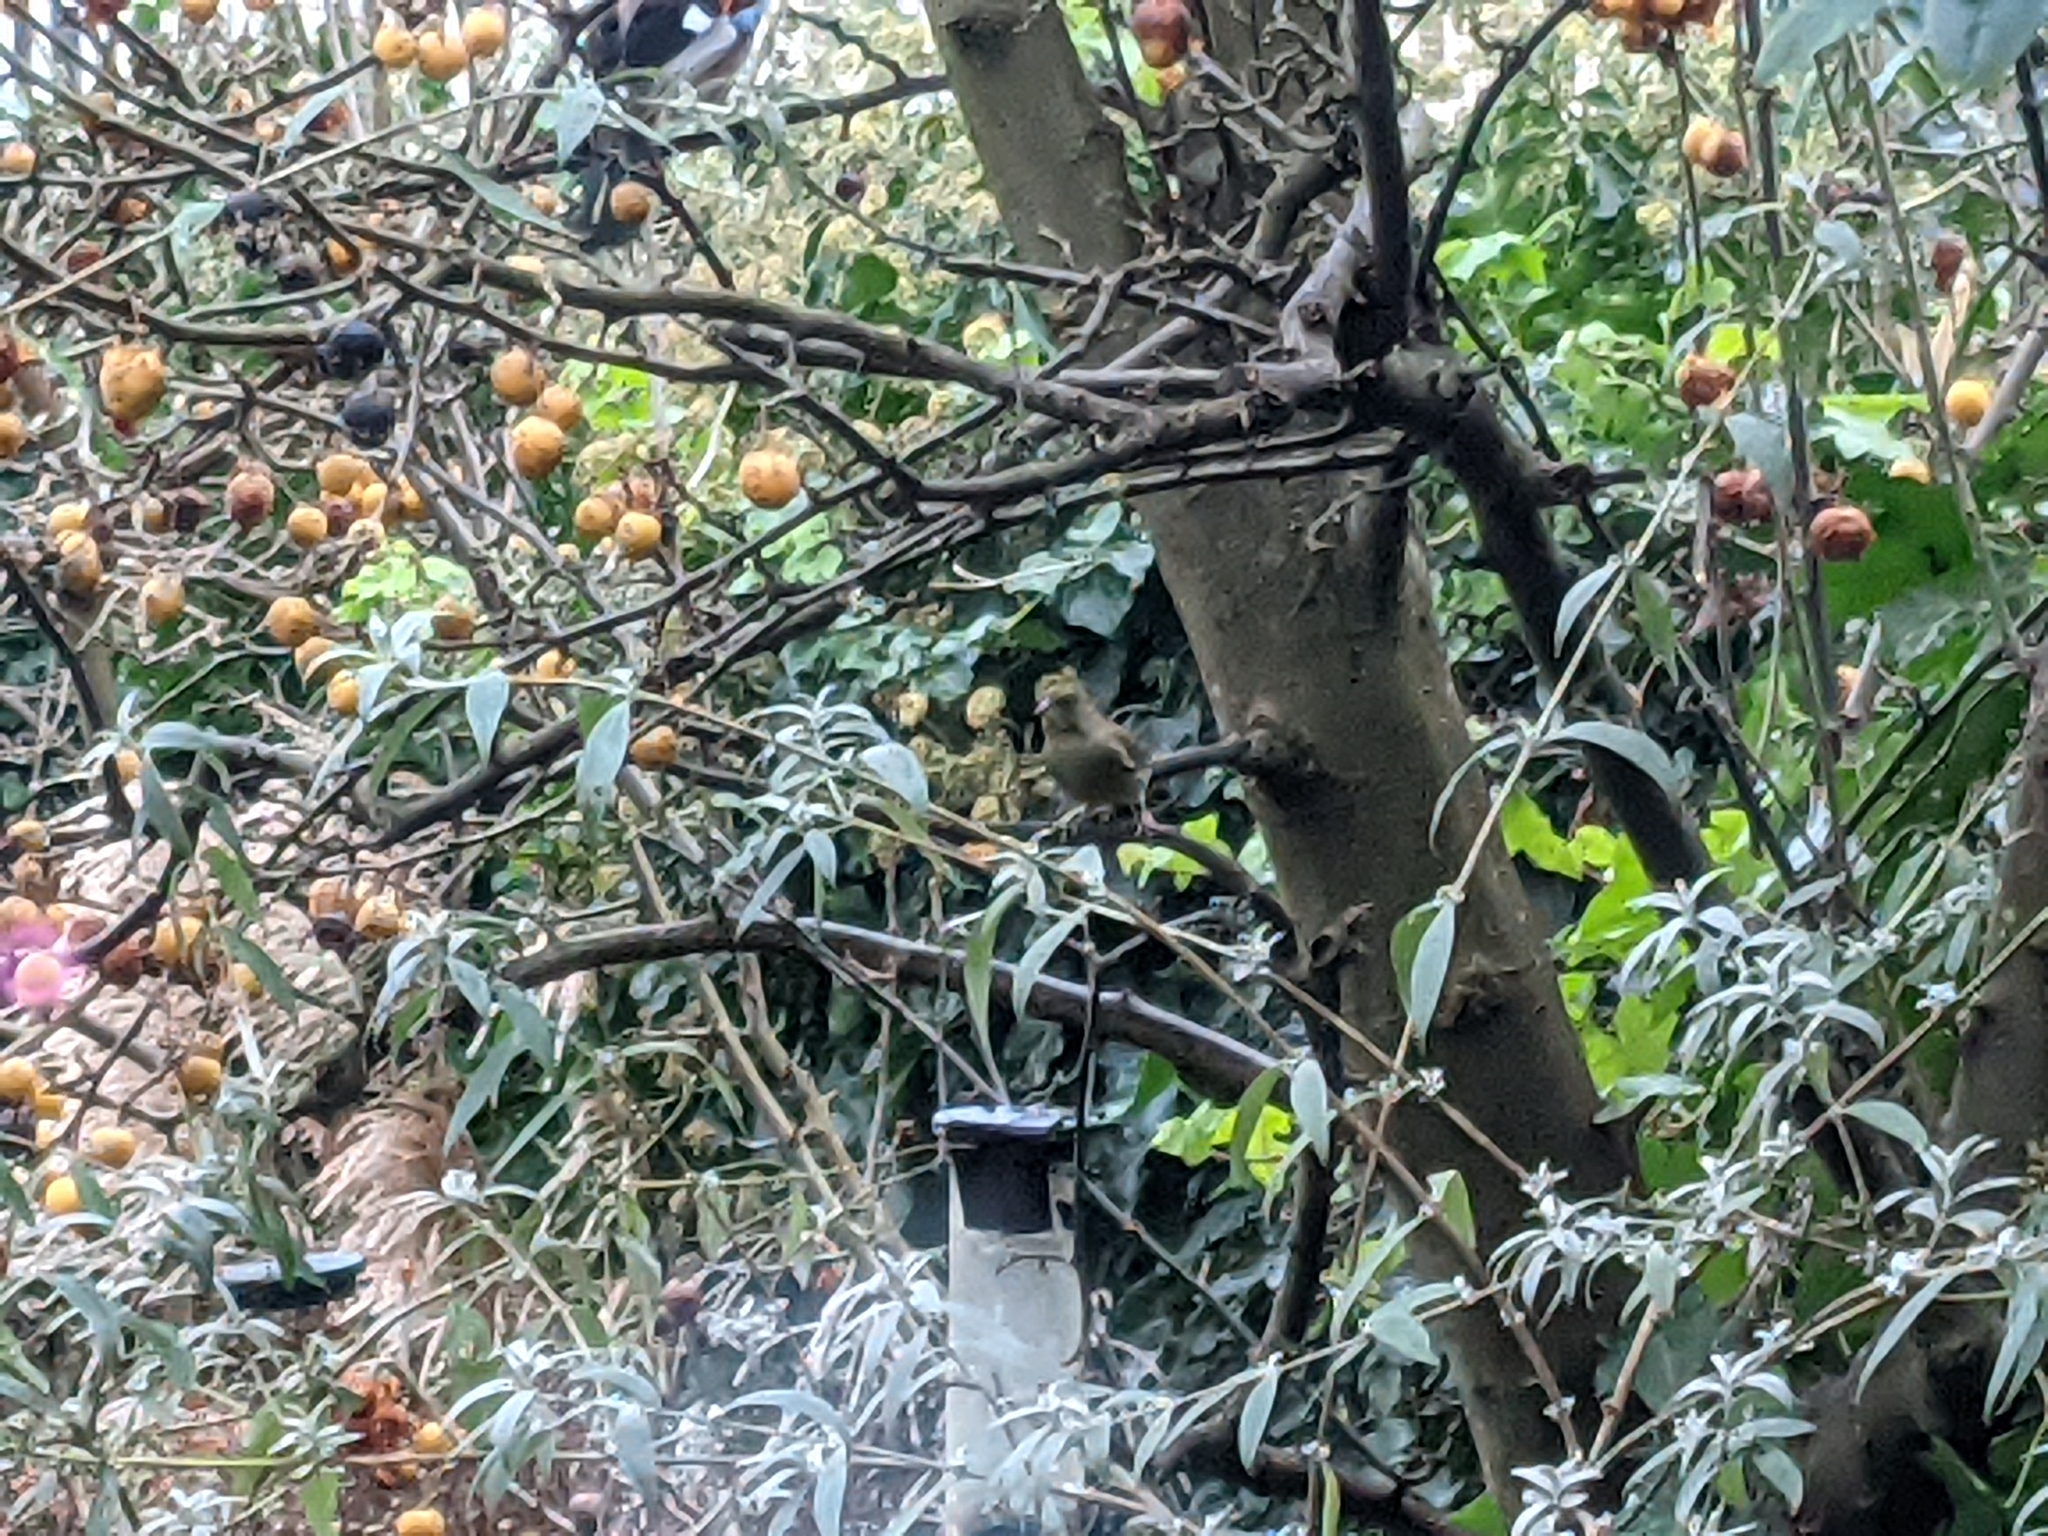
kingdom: Plantae
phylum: Tracheophyta
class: Liliopsida
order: Poales
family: Poaceae
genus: Chloris
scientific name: Chloris chloris
